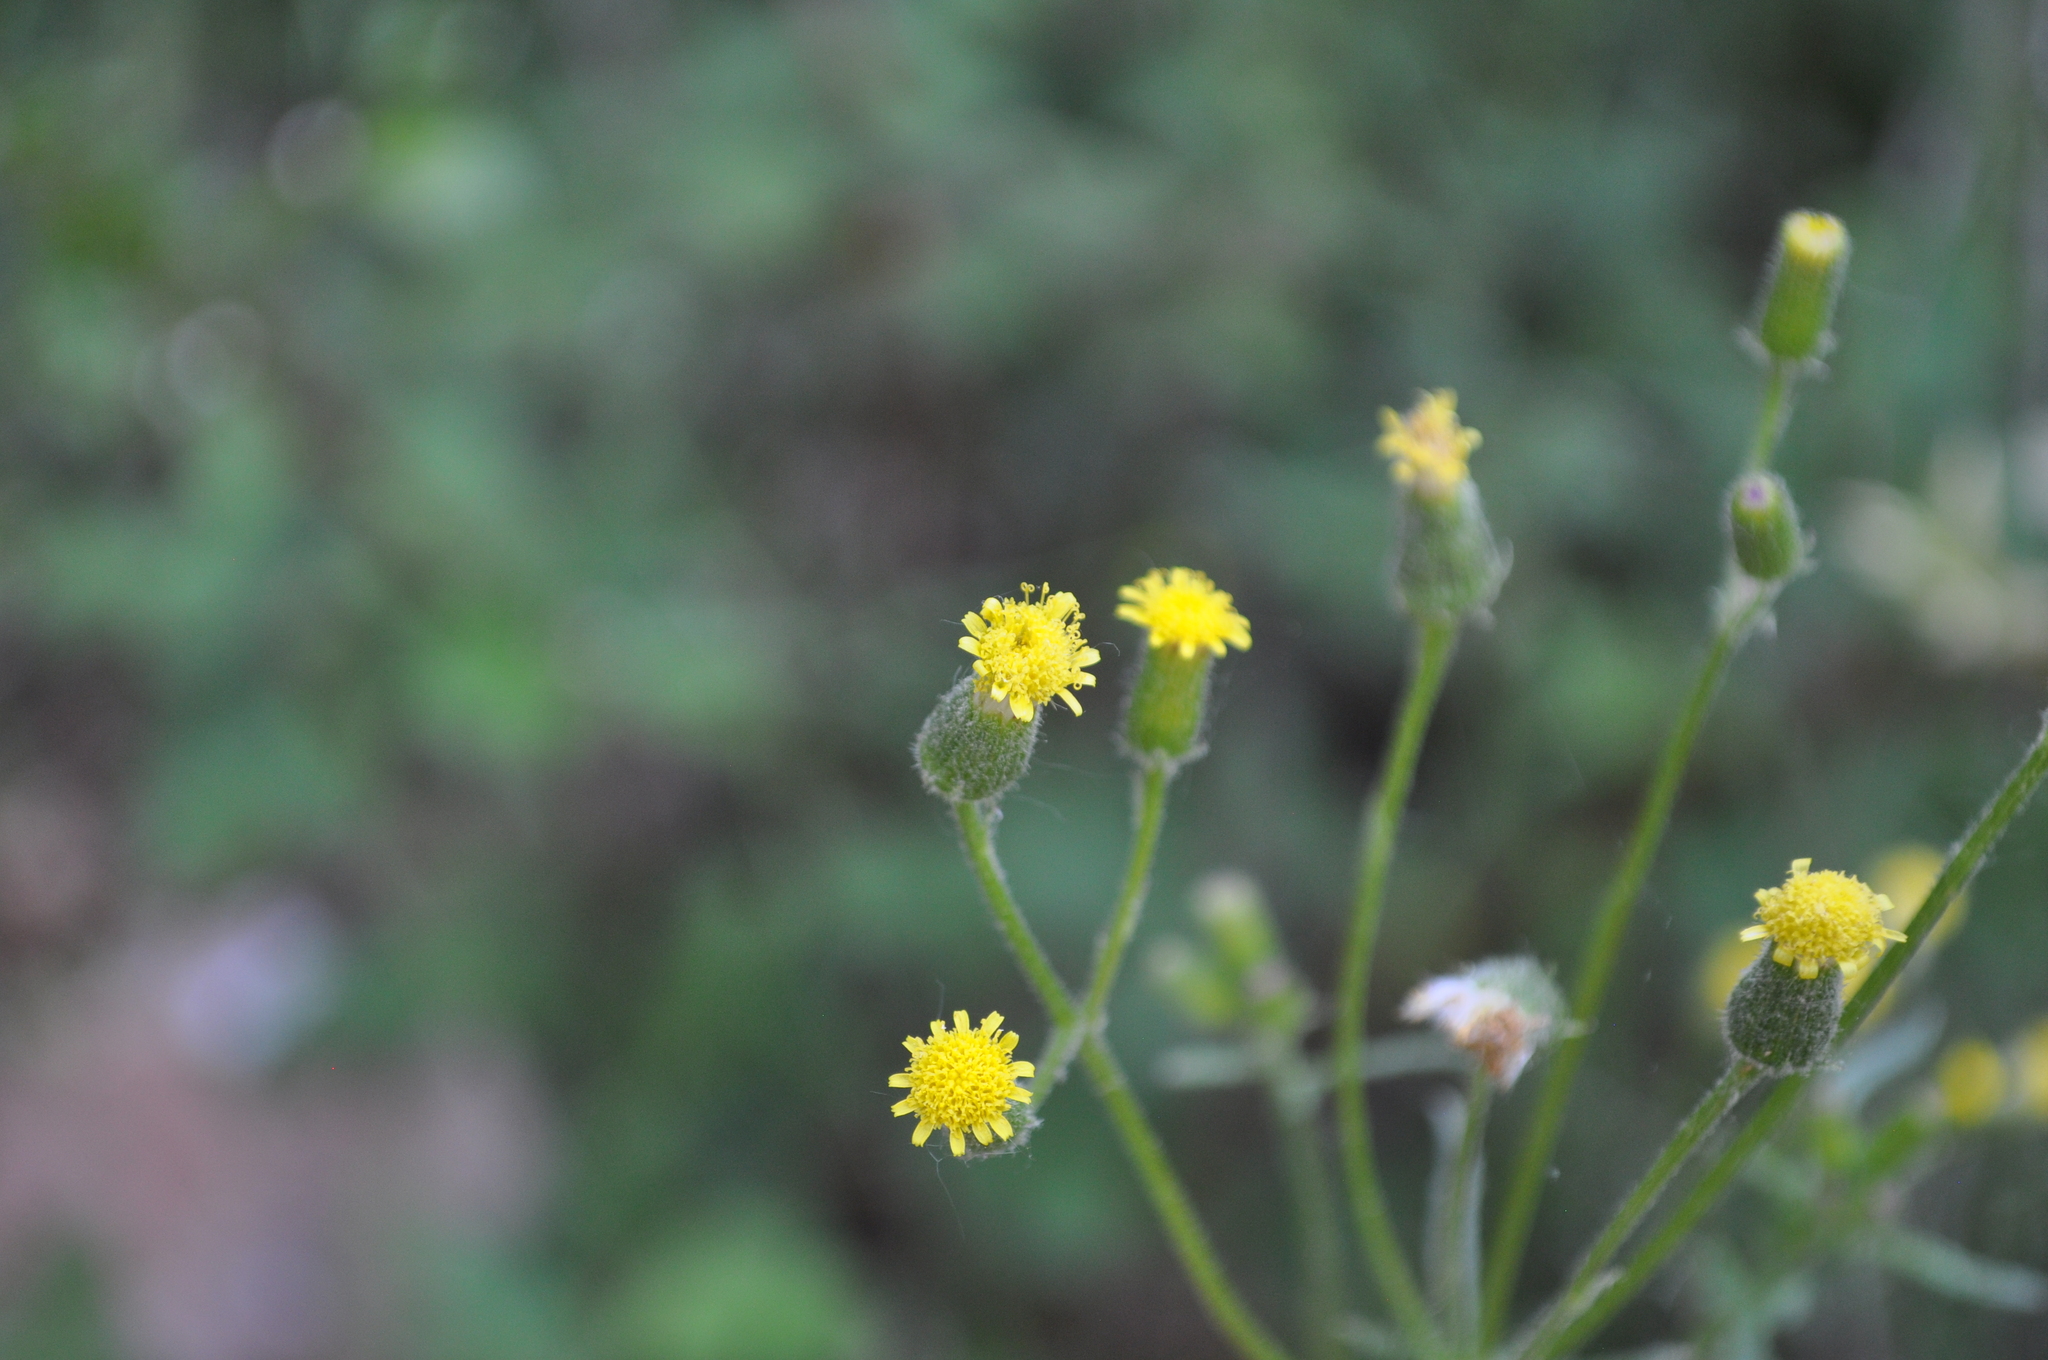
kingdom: Plantae
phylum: Tracheophyta
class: Magnoliopsida
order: Asterales
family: Asteraceae
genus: Senecio
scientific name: Senecio lividus
